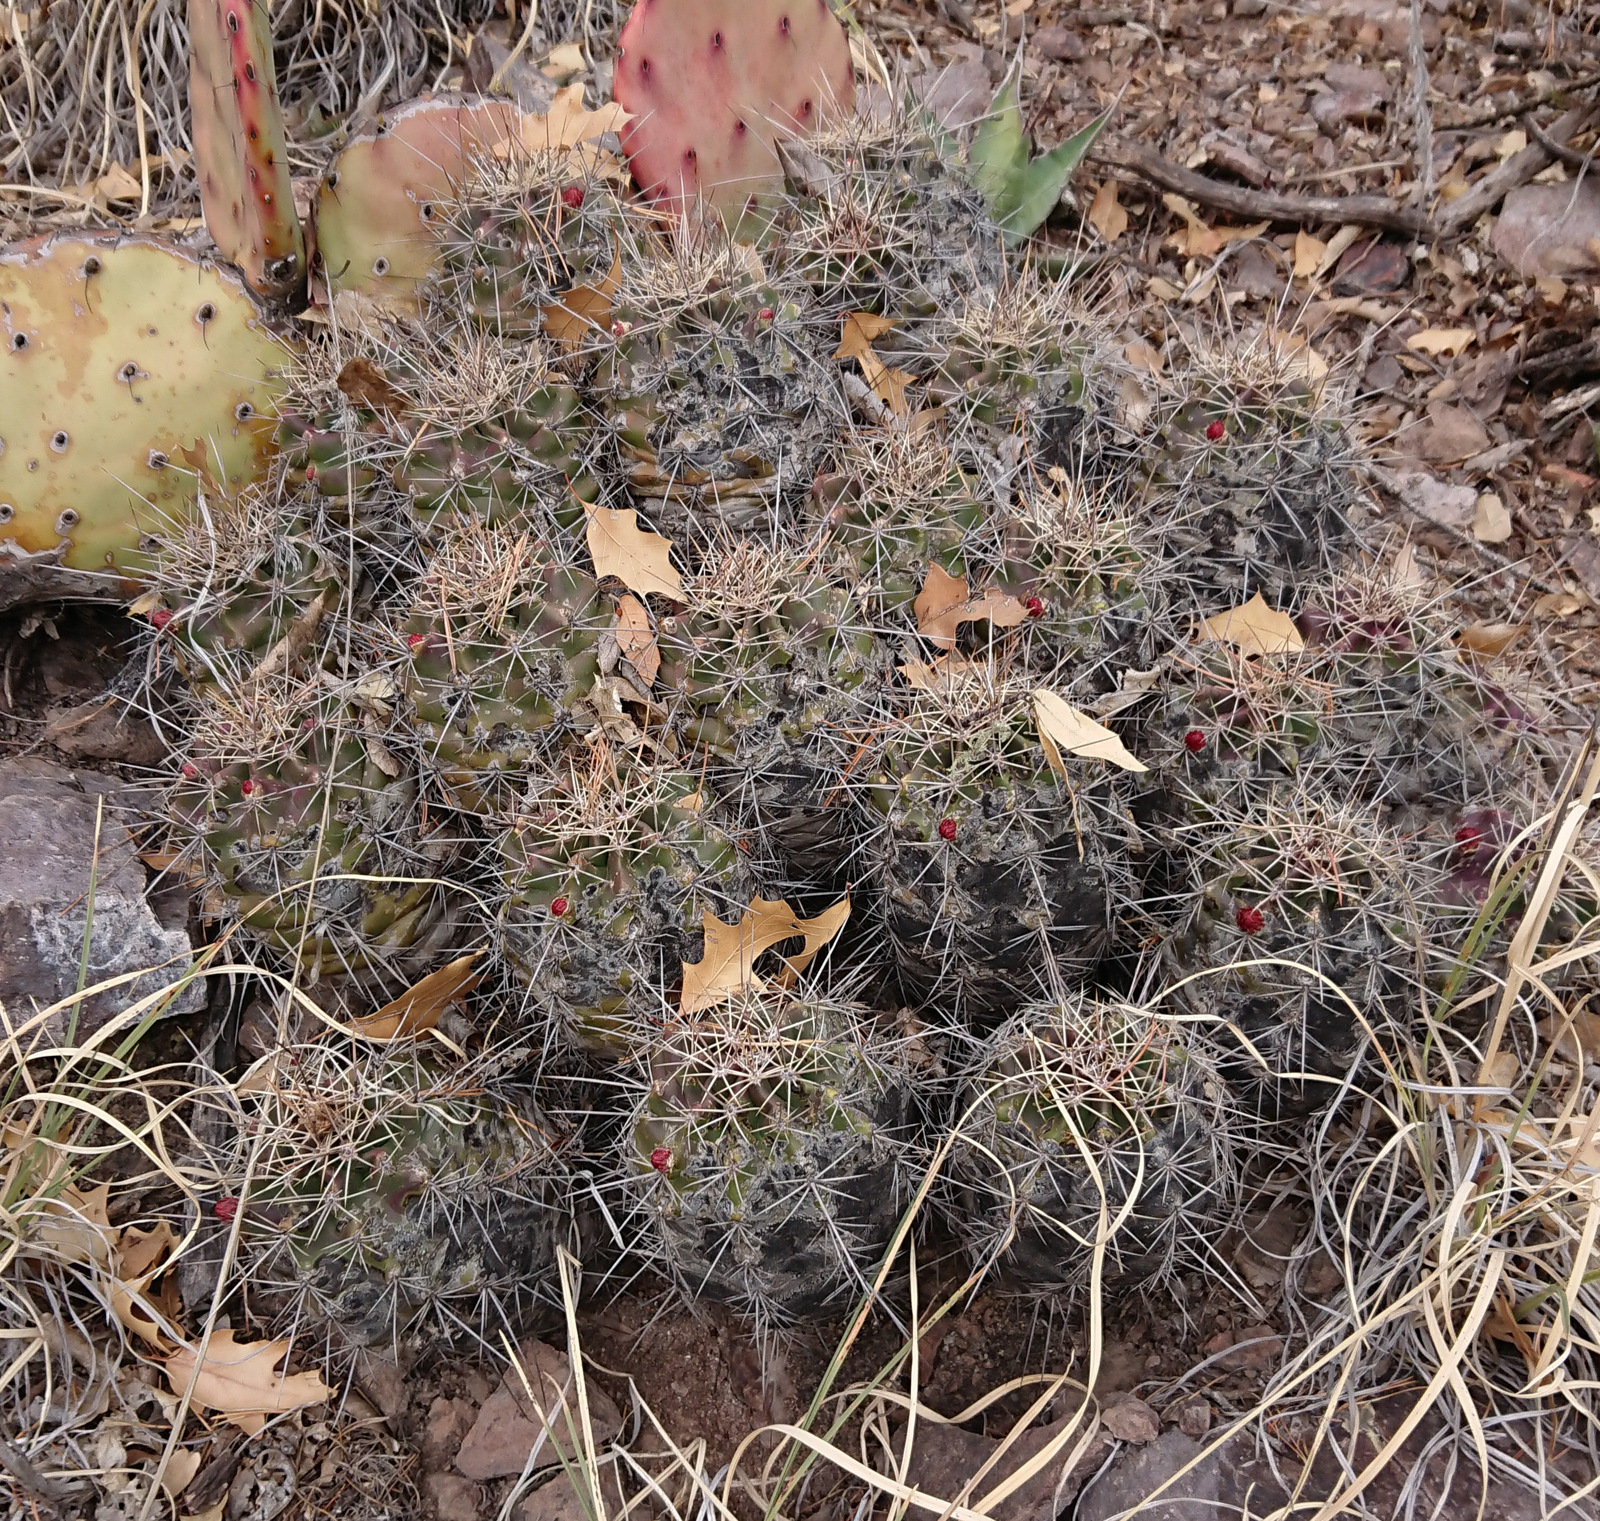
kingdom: Plantae
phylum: Tracheophyta
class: Magnoliopsida
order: Caryophyllales
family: Cactaceae
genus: Echinocereus
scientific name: Echinocereus coccineus
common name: Scarlet hedgehog cactus
